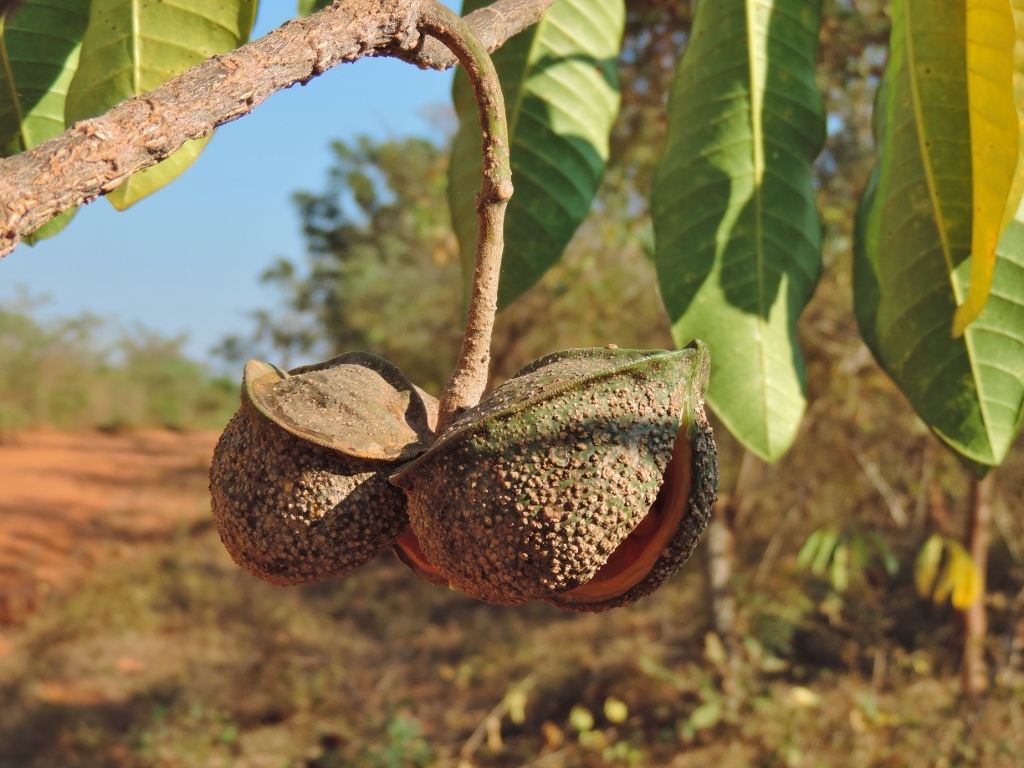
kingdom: Plantae
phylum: Tracheophyta
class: Magnoliopsida
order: Gentianales
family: Apocynaceae
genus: Tabernaemontana
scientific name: Tabernaemontana elegans
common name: Toadtree
